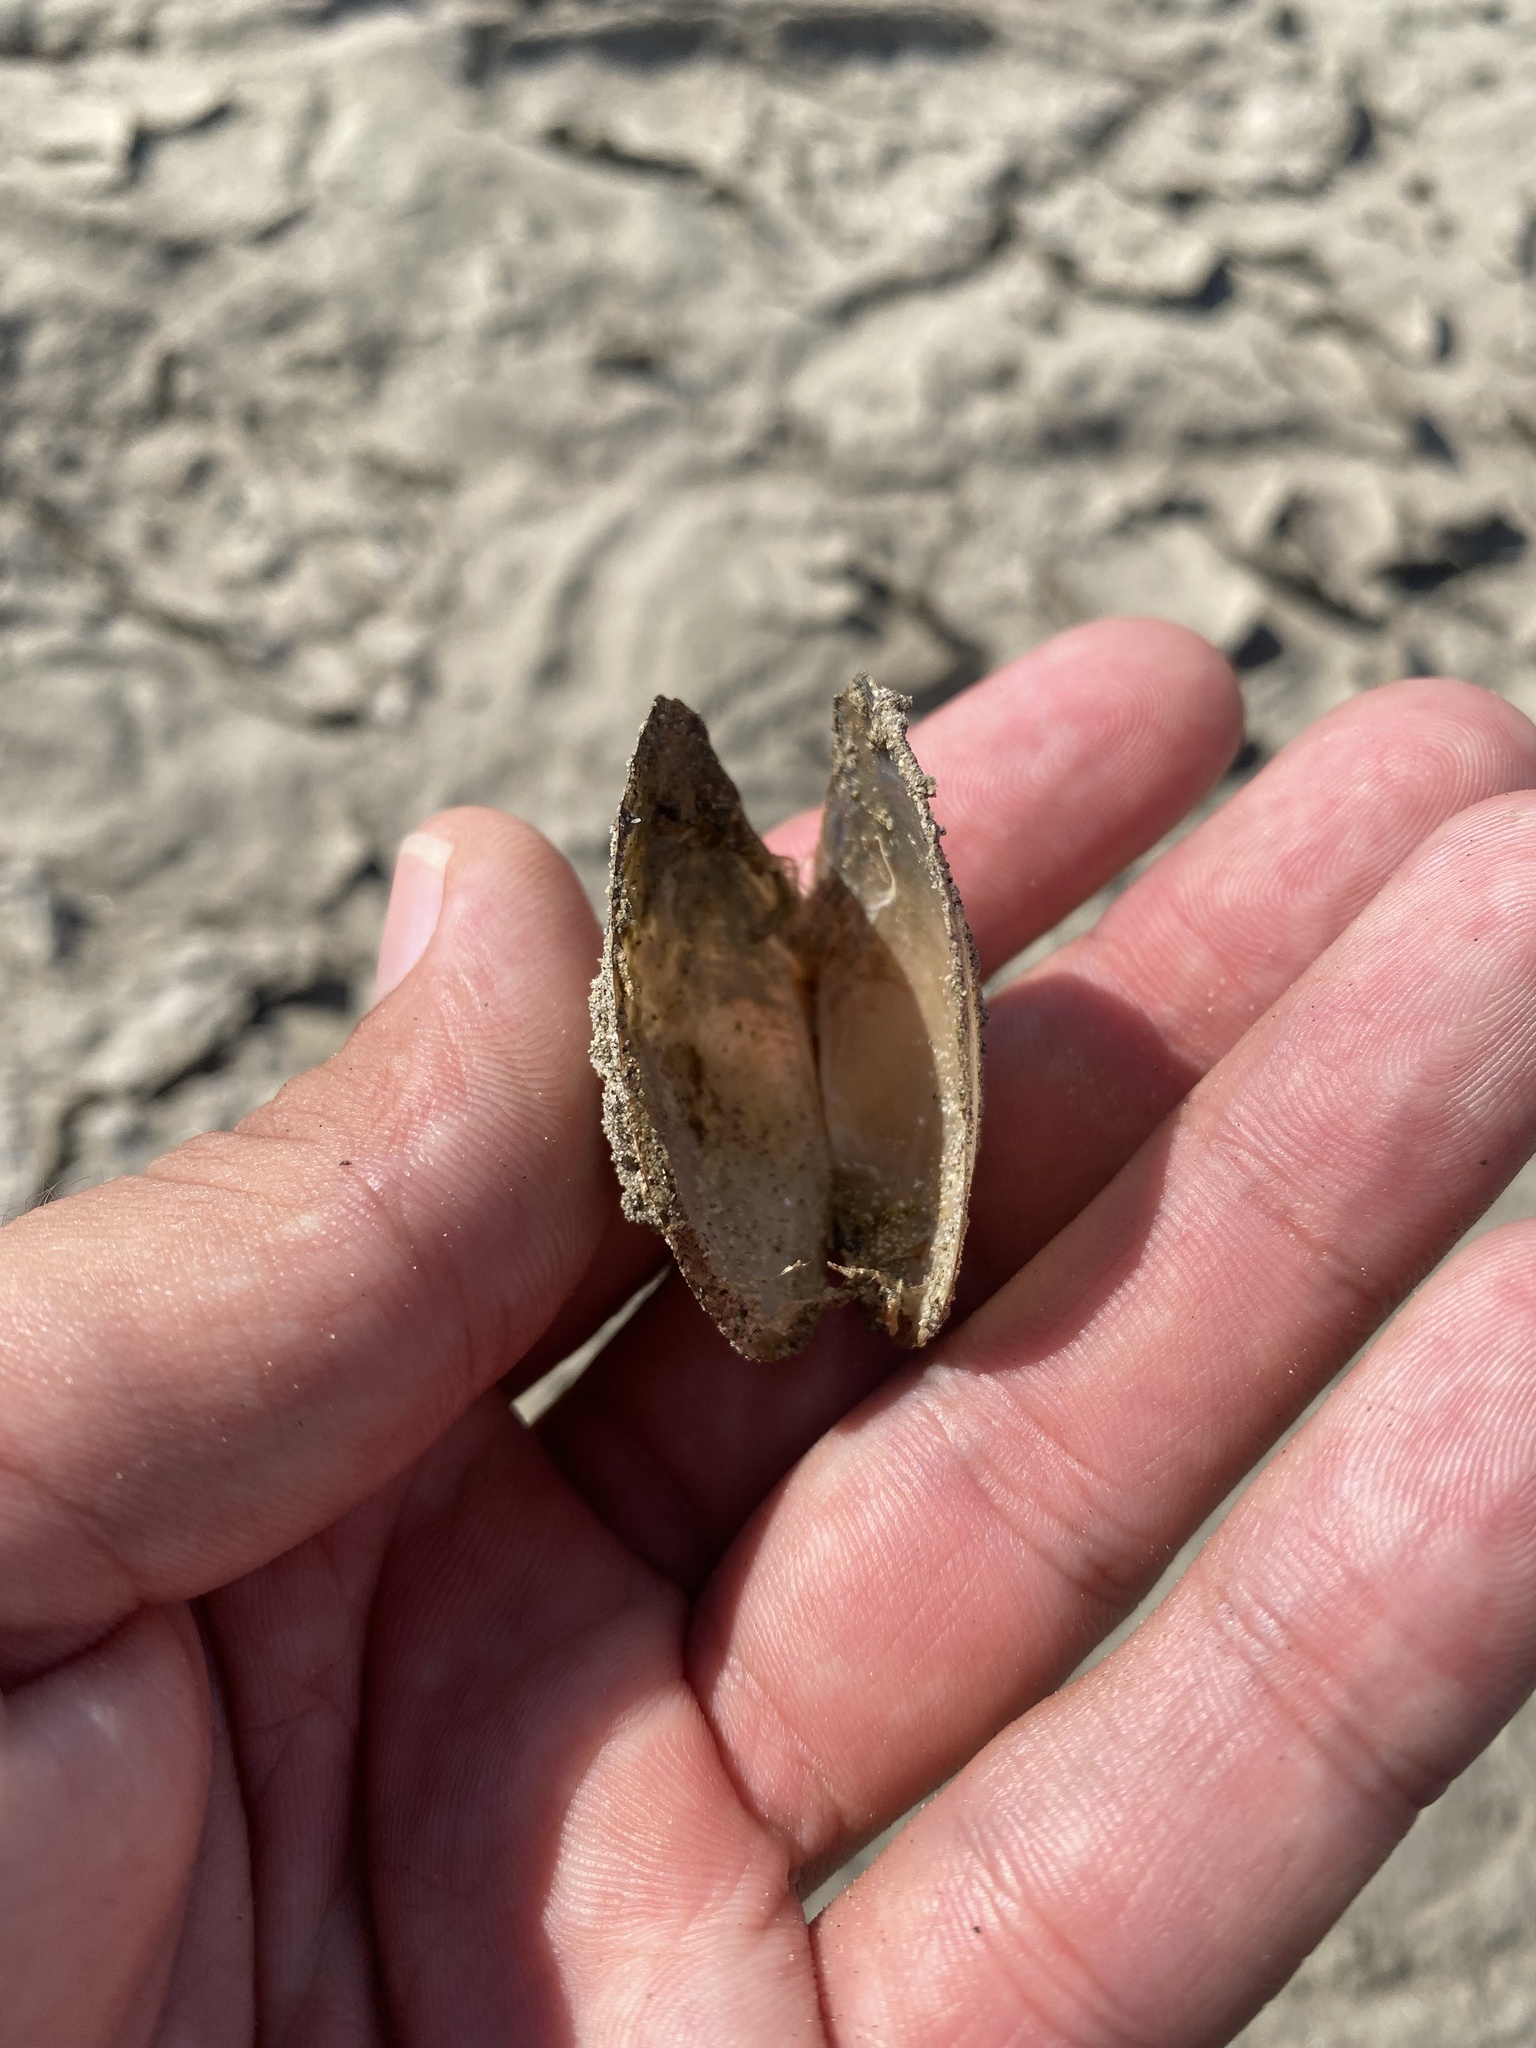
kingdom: Animalia
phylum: Mollusca
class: Bivalvia
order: Unionida
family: Unionidae
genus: Anodonta
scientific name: Anodonta anatina
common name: Duck mussel
